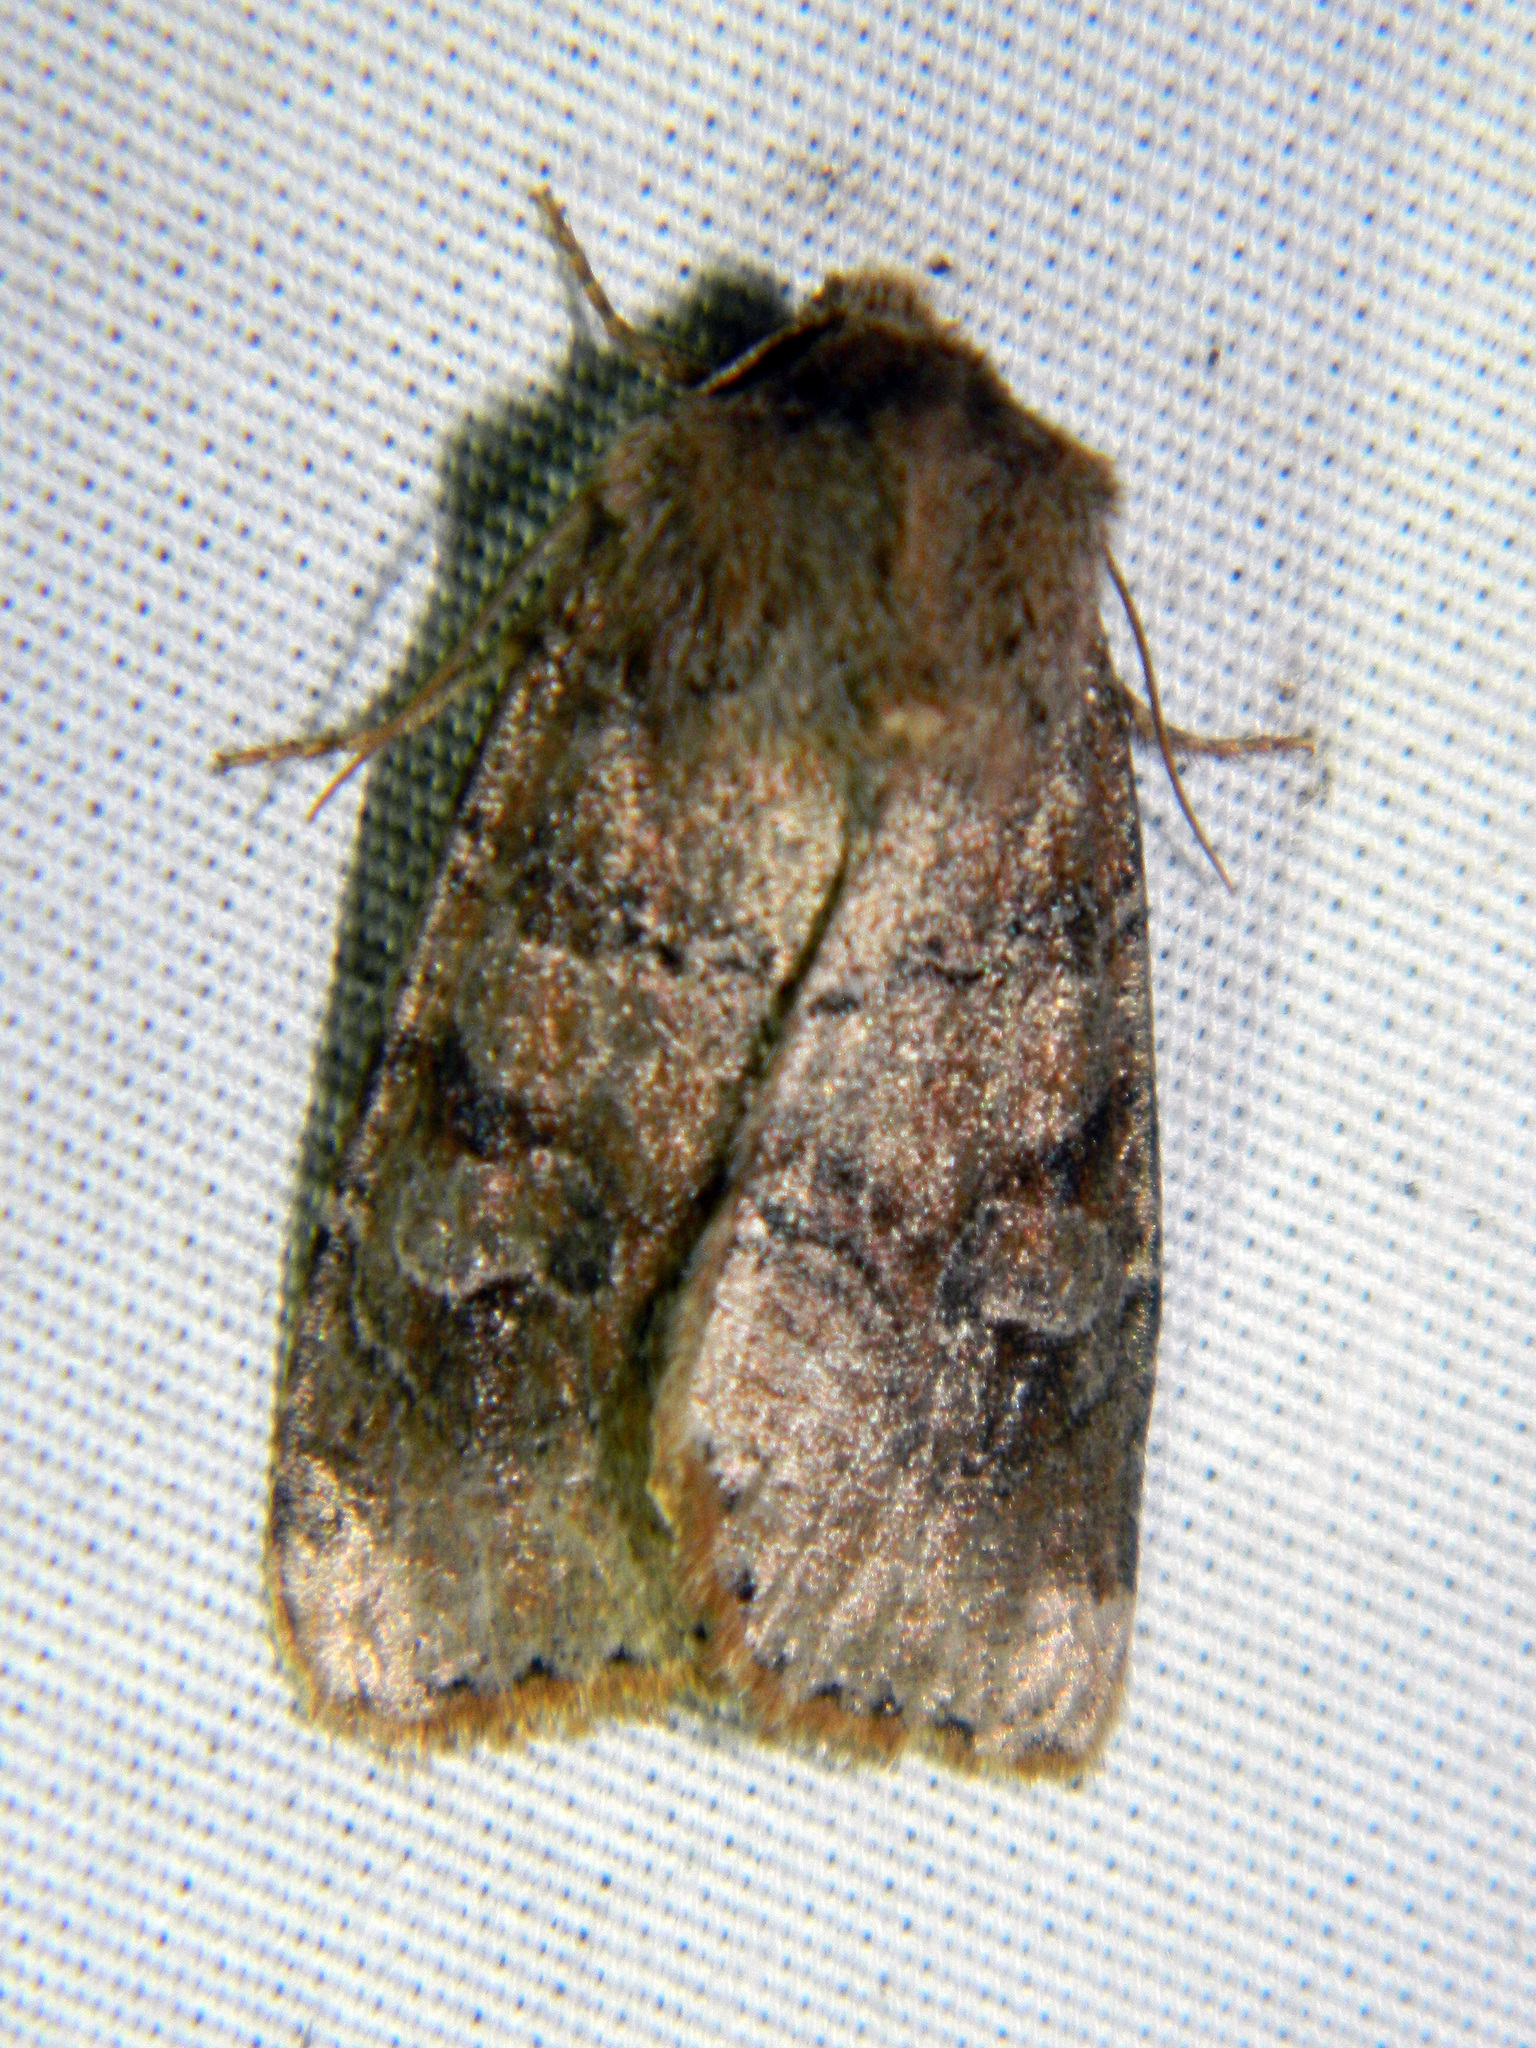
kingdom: Animalia
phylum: Arthropoda
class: Insecta
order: Lepidoptera
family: Noctuidae
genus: Crocigrapha
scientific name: Crocigrapha normani
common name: Norman's quaker
